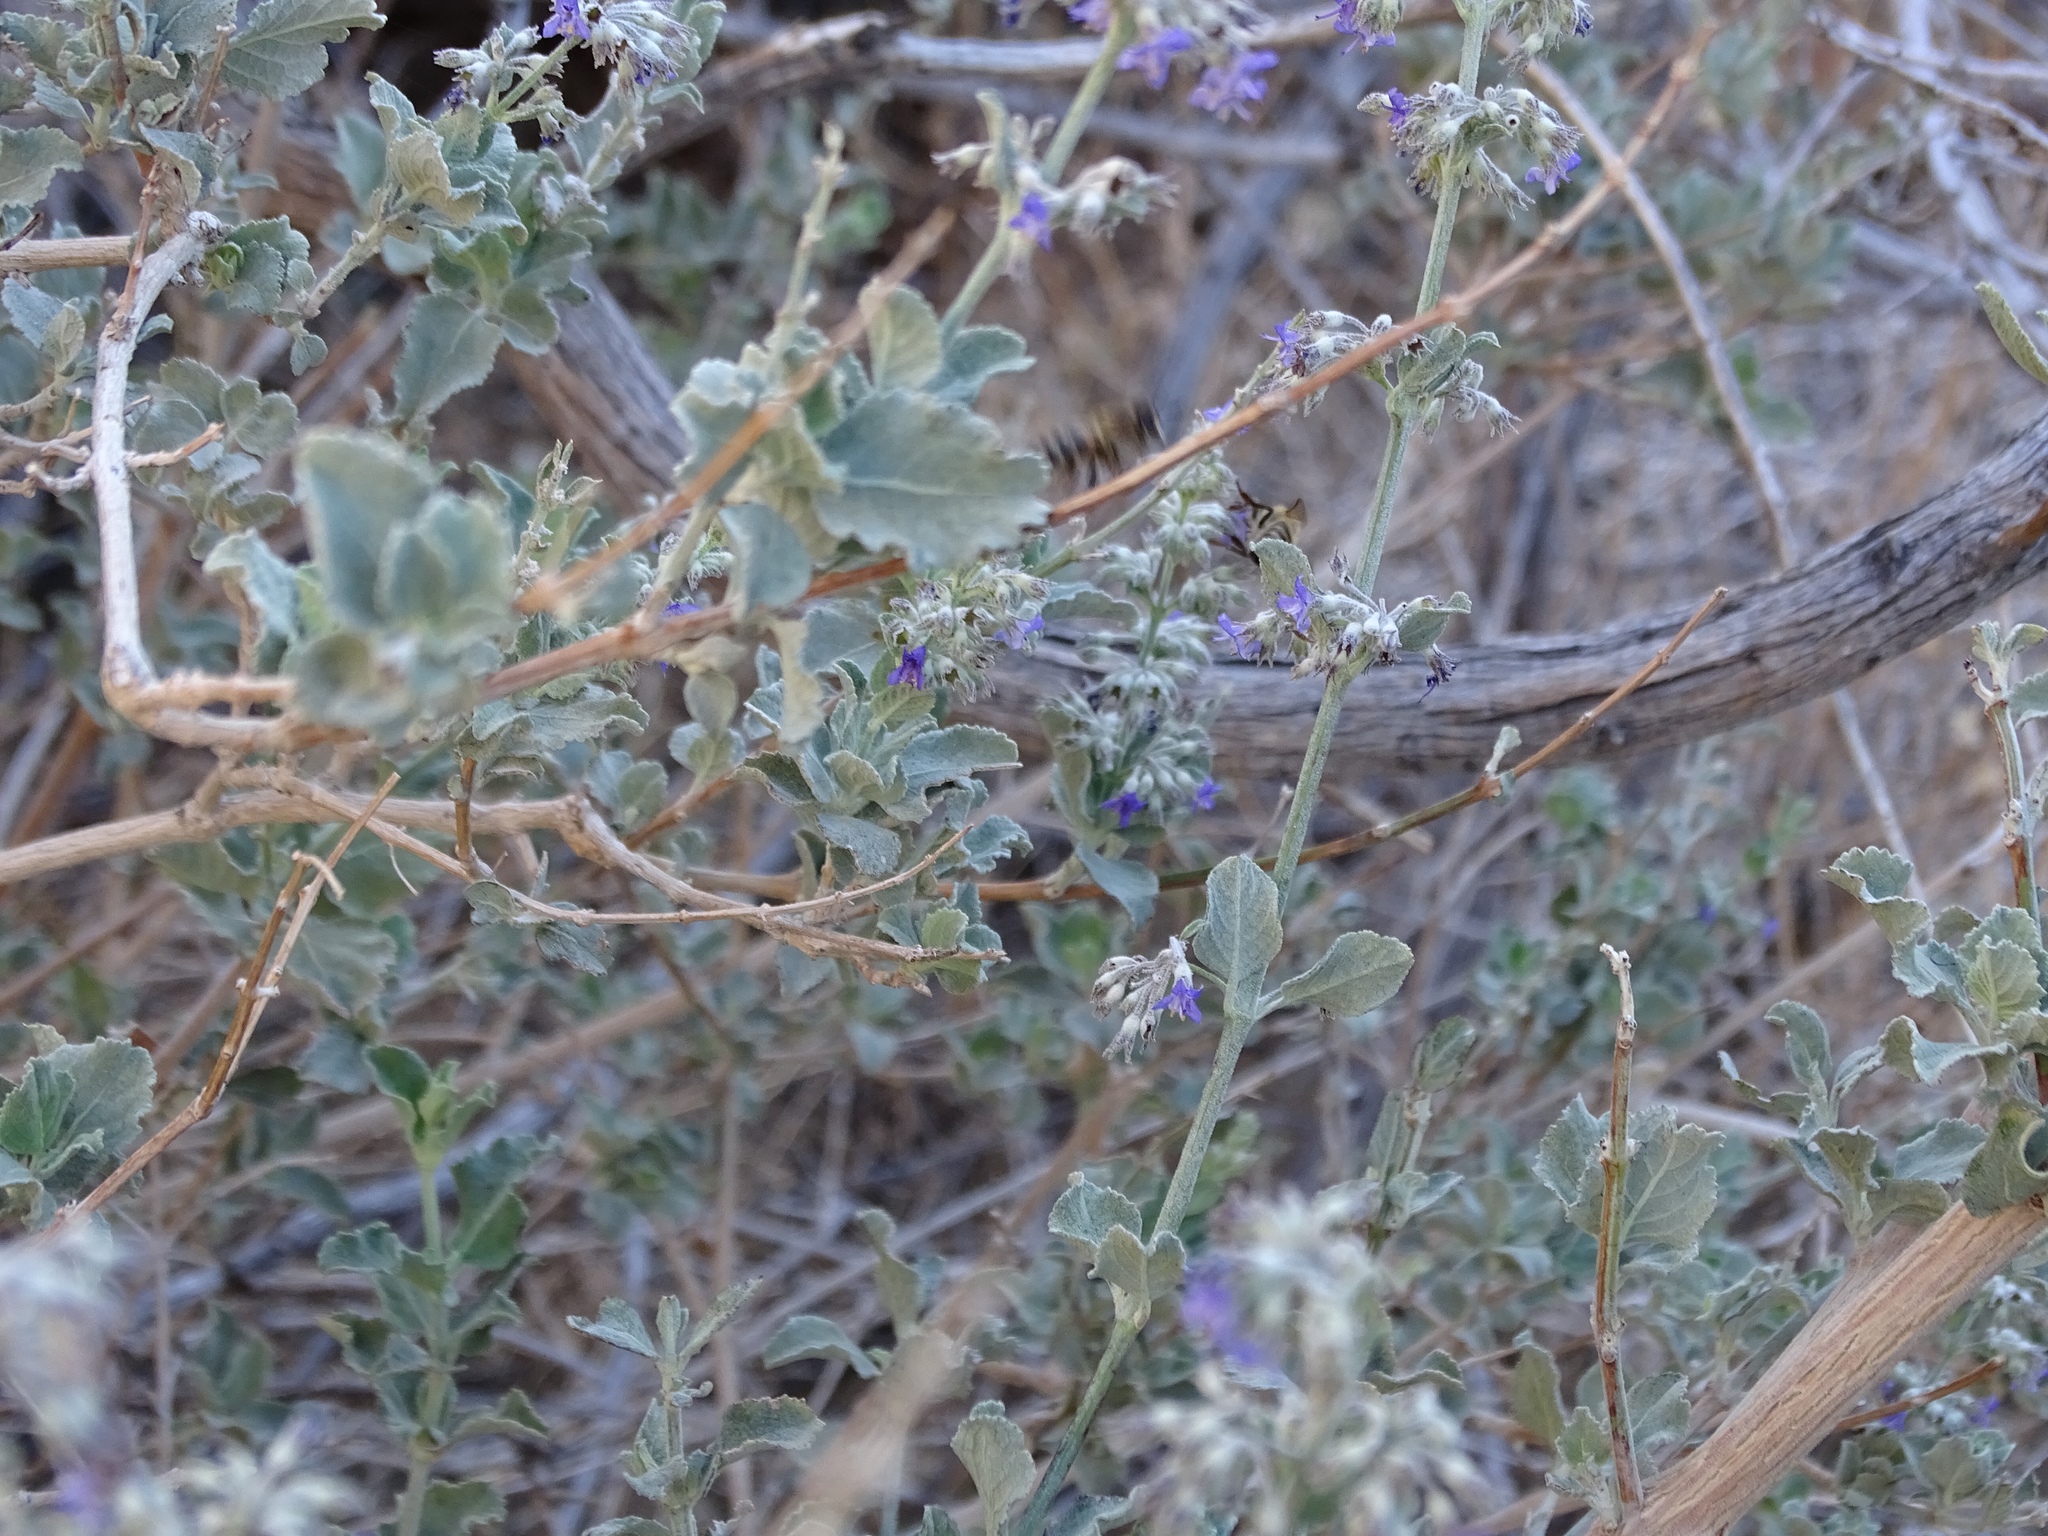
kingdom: Plantae
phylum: Tracheophyta
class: Magnoliopsida
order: Lamiales
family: Lamiaceae
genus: Condea
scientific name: Condea emoryi
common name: Chia
